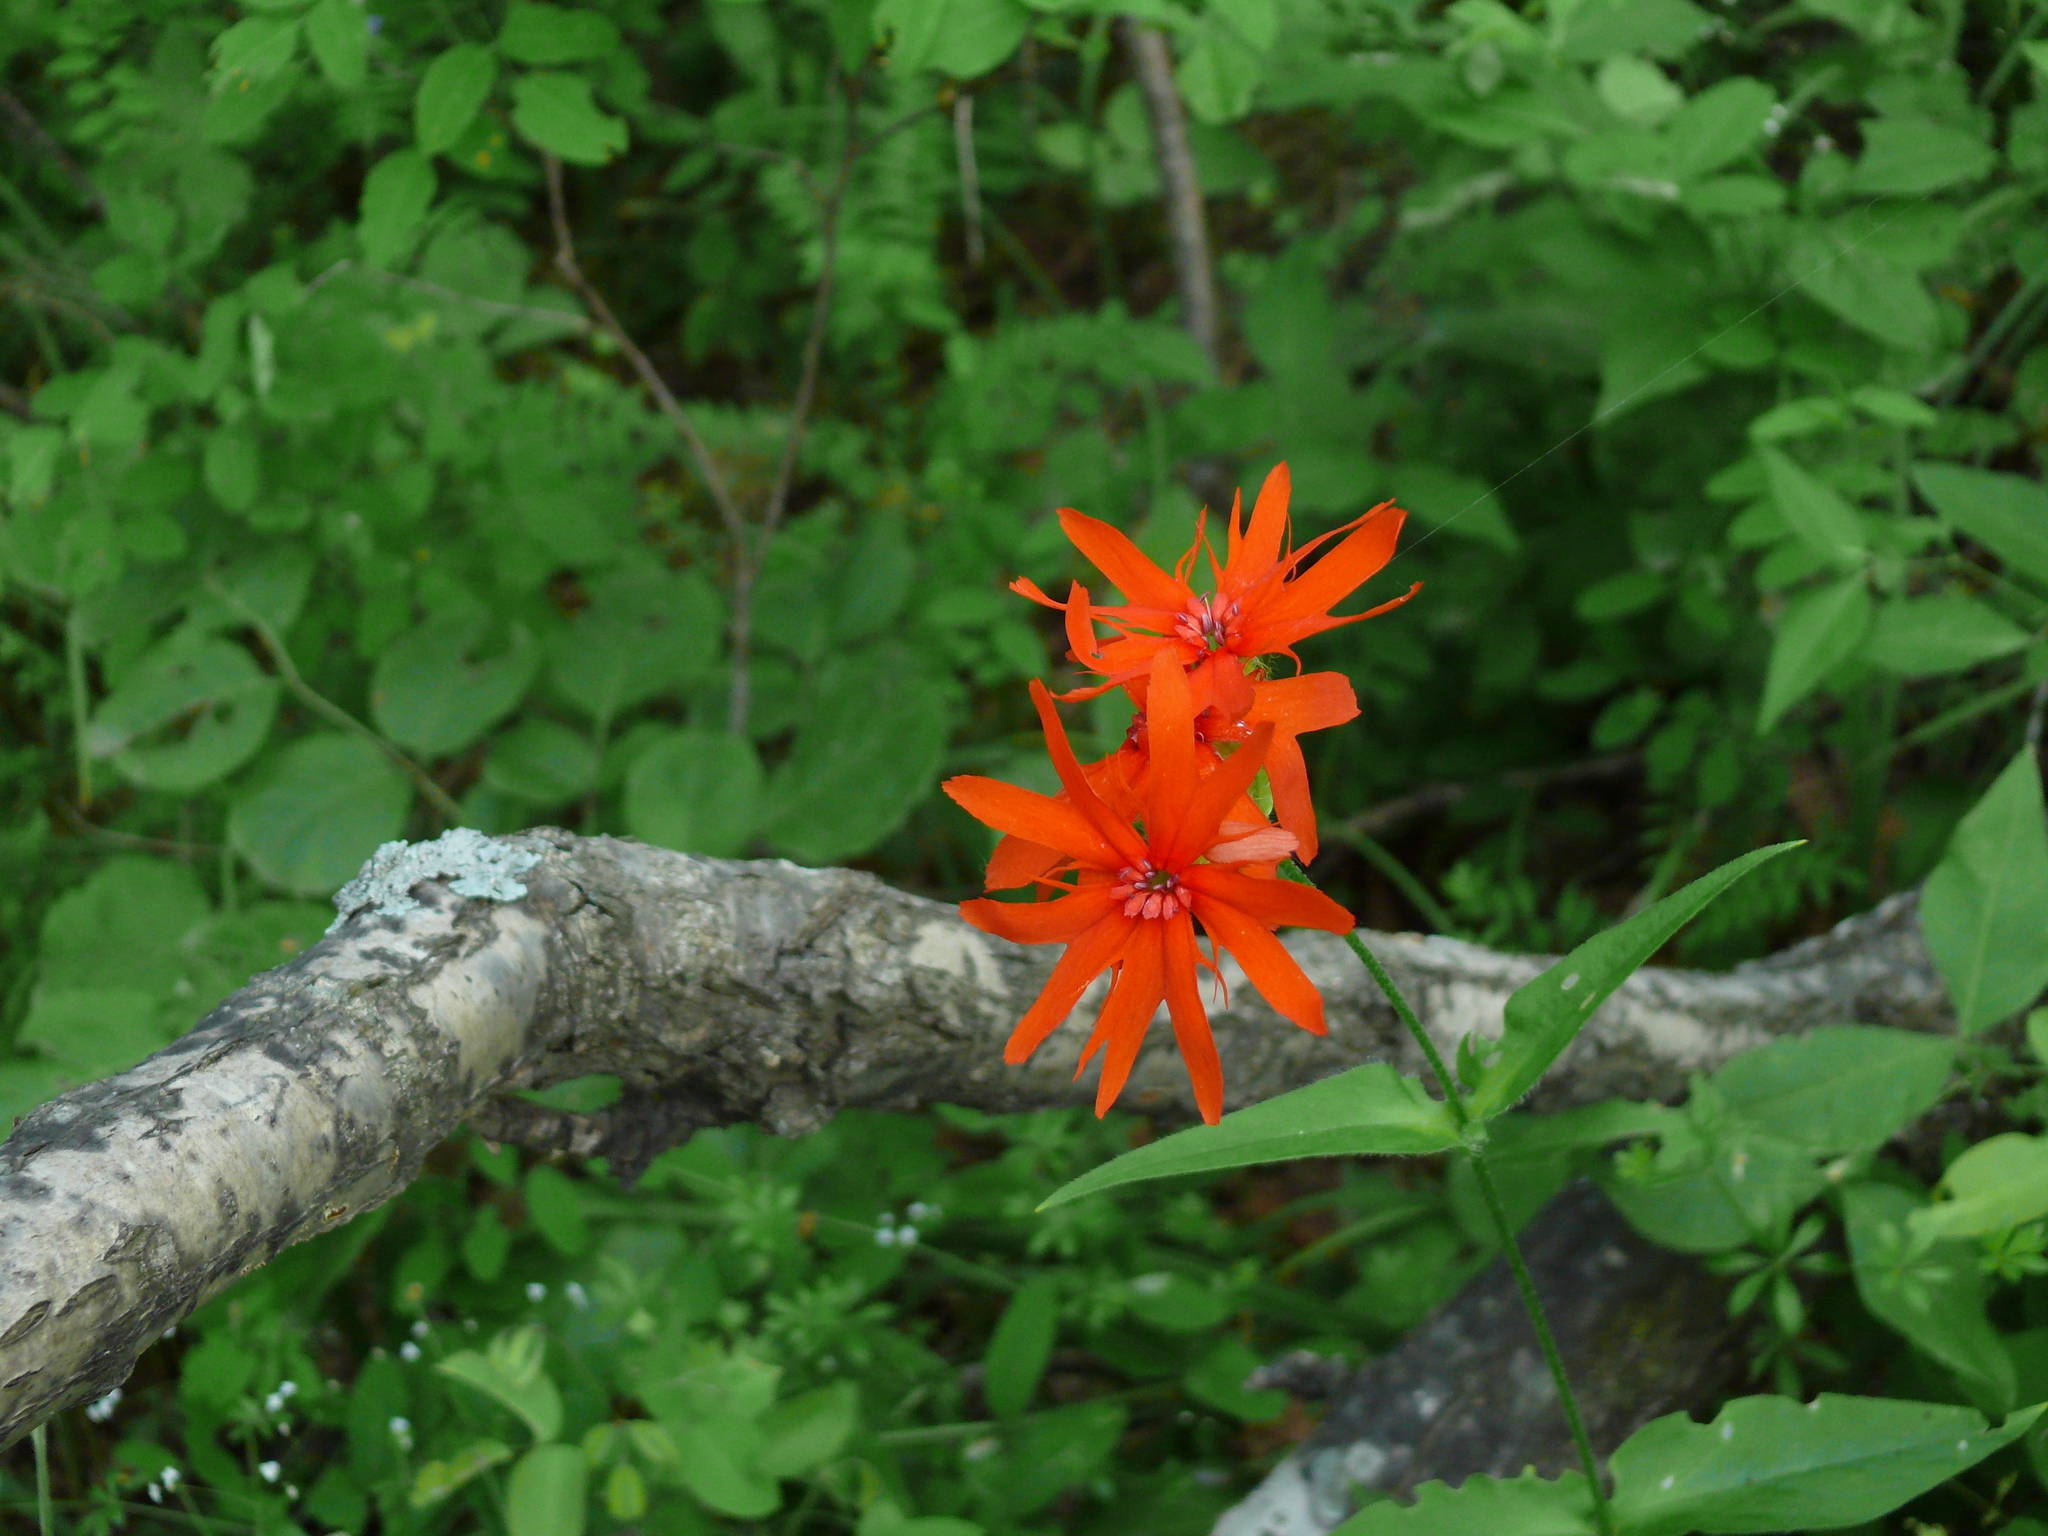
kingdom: Plantae
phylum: Tracheophyta
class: Magnoliopsida
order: Caryophyllales
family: Caryophyllaceae
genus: Silene
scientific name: Silene banksia
